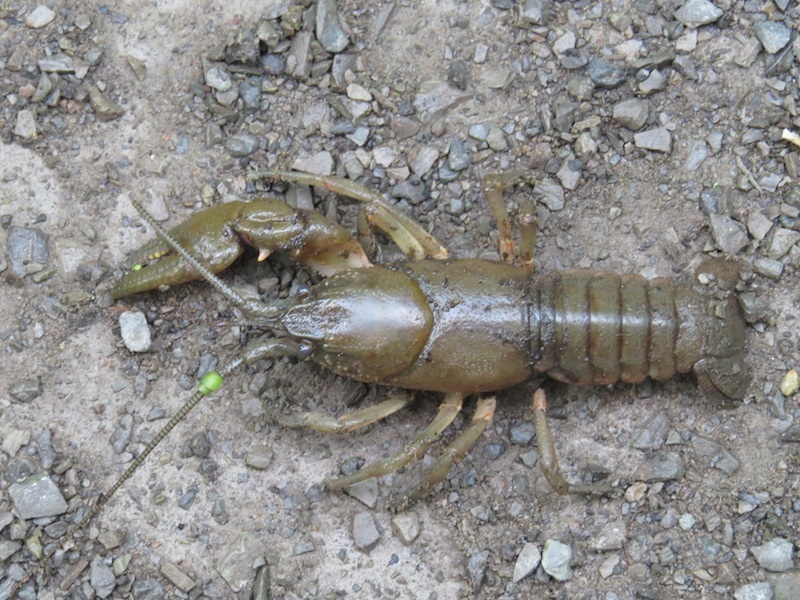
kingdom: Animalia
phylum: Arthropoda
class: Malacostraca
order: Decapoda
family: Cambaridae
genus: Cambarus
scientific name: Cambarus carinirostris
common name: Rock crayfish
